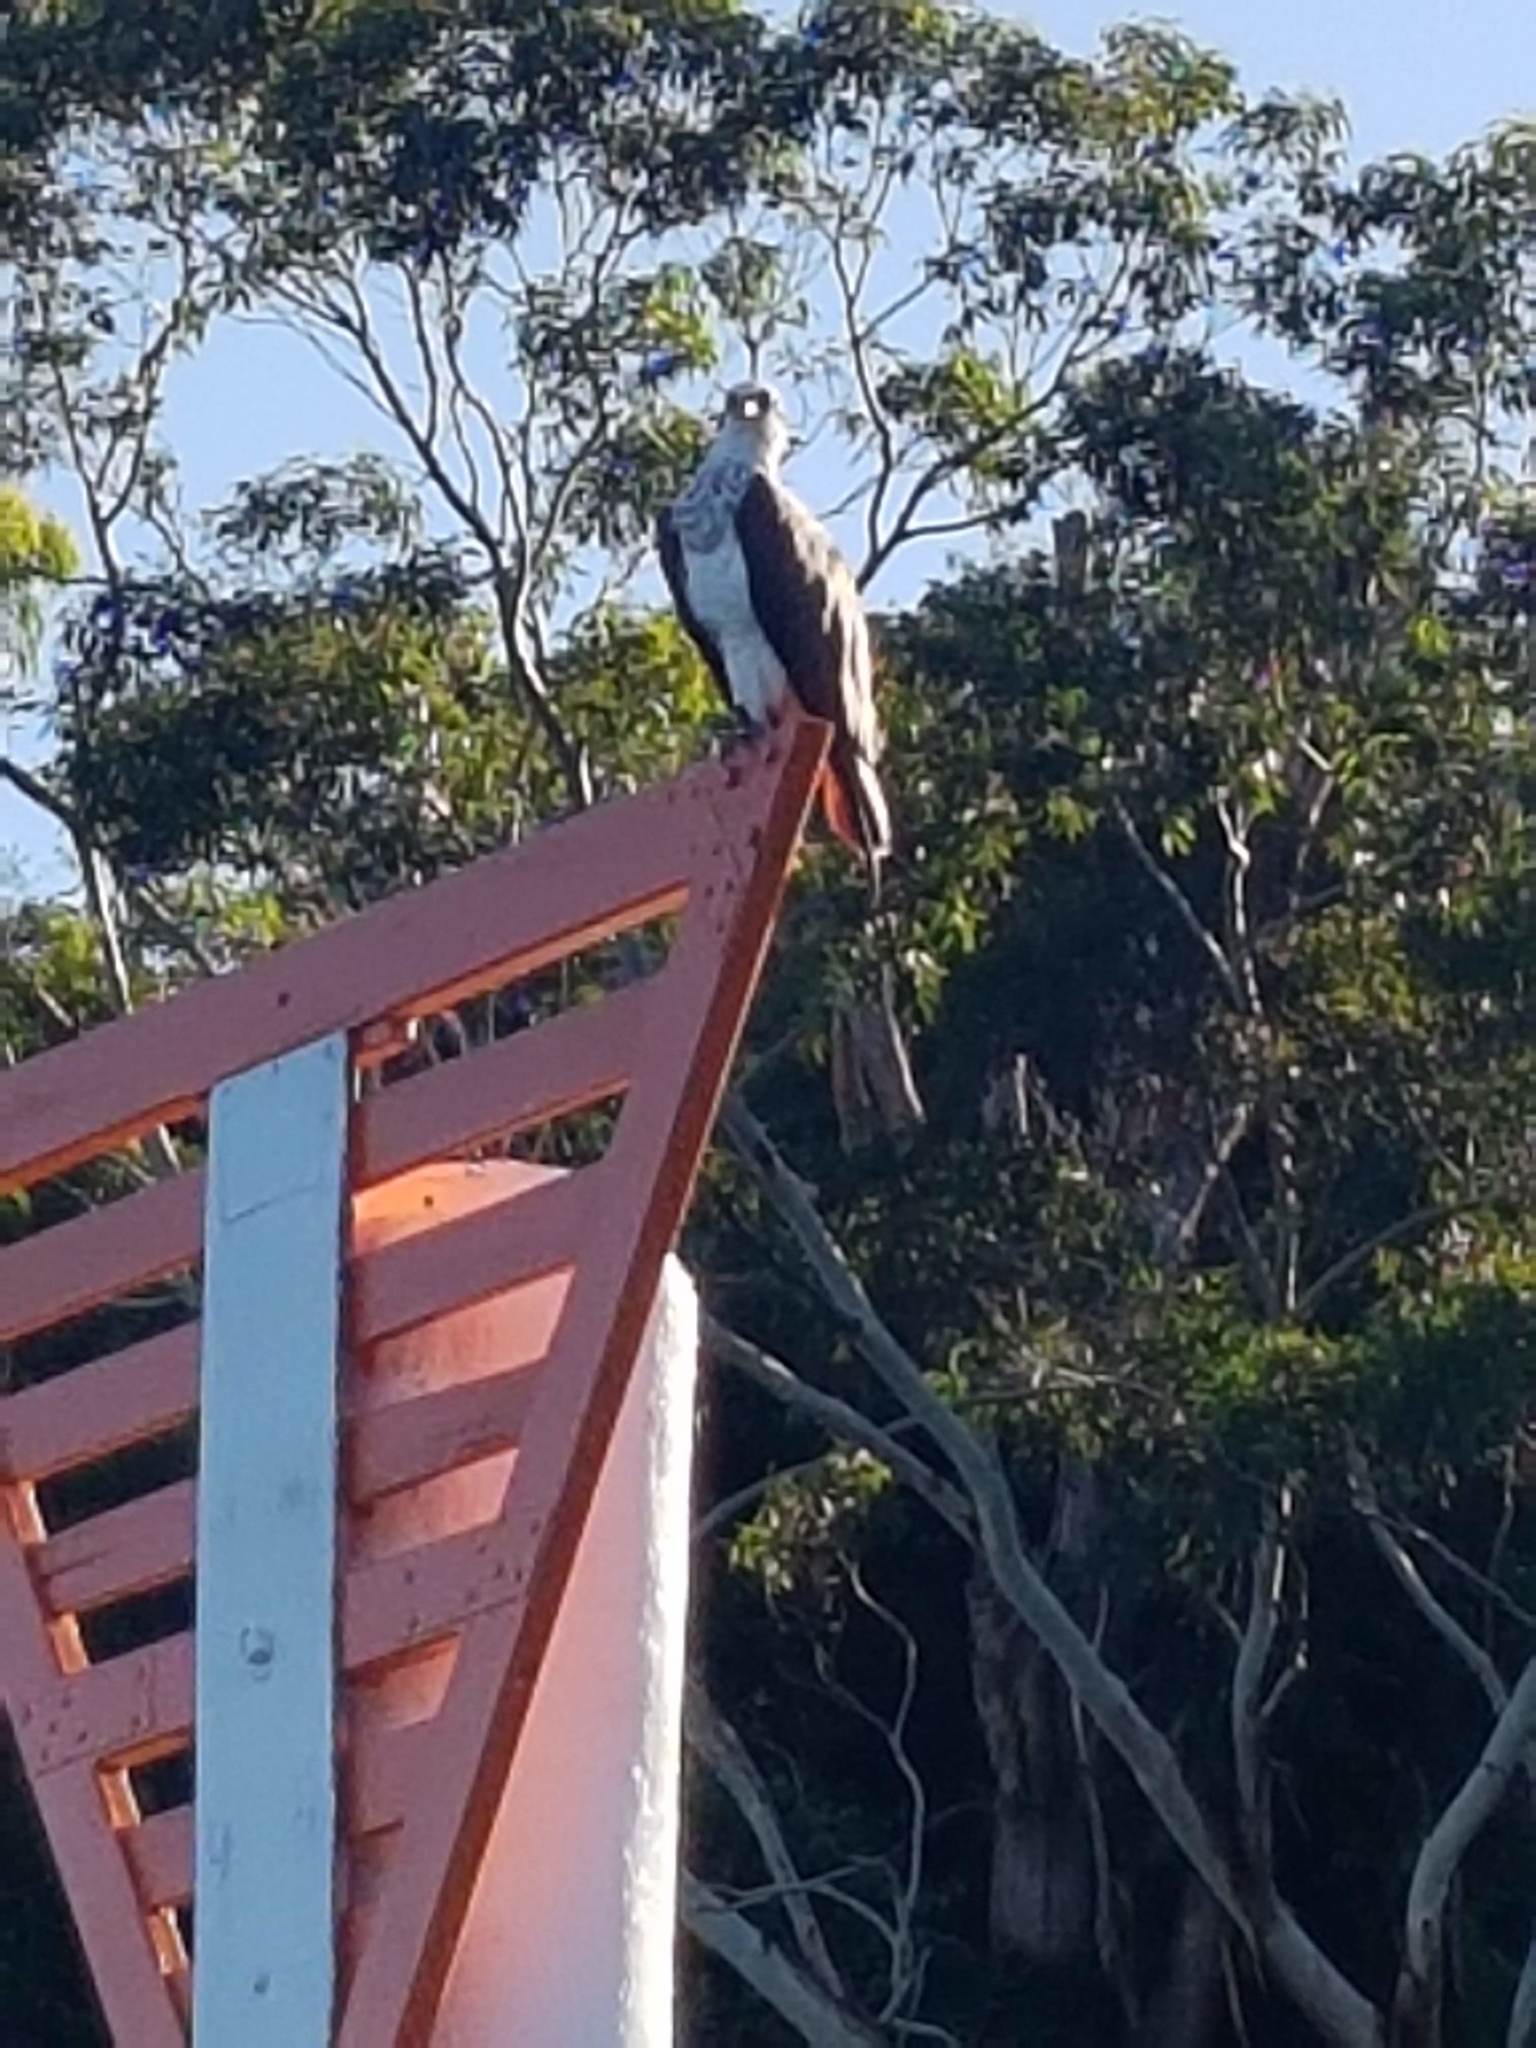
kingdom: Animalia
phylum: Chordata
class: Aves
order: Accipitriformes
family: Pandionidae
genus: Pandion
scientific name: Pandion haliaetus
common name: Osprey
